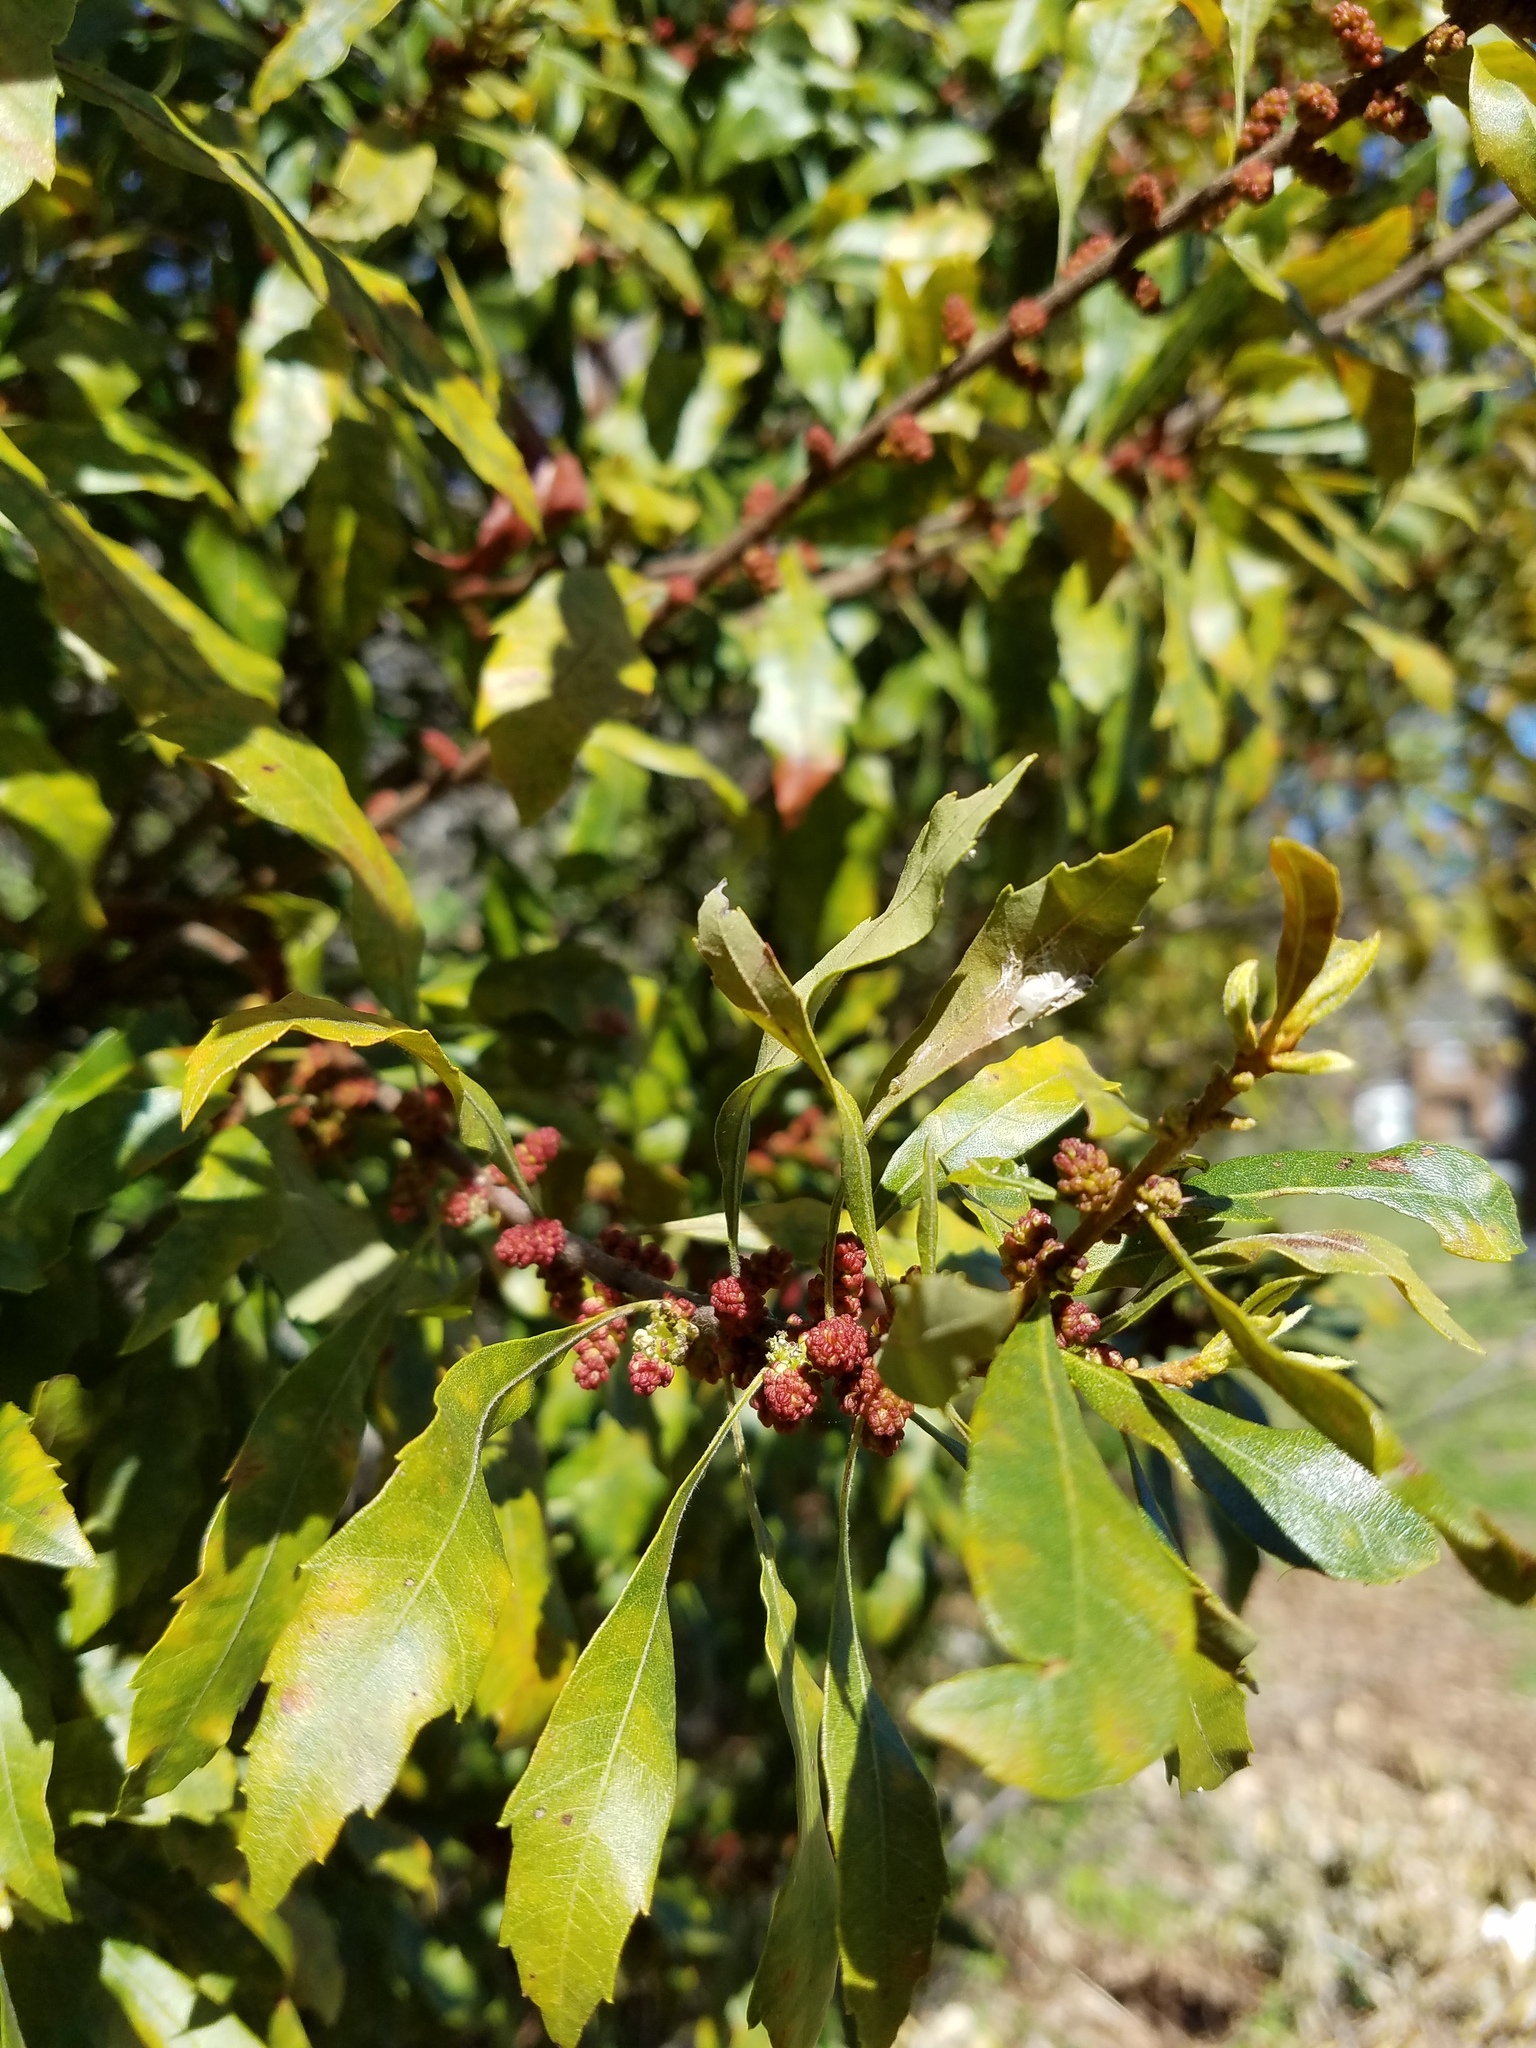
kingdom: Plantae
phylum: Tracheophyta
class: Magnoliopsida
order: Fagales
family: Myricaceae
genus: Morella
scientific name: Morella cerifera
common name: Wax myrtle
